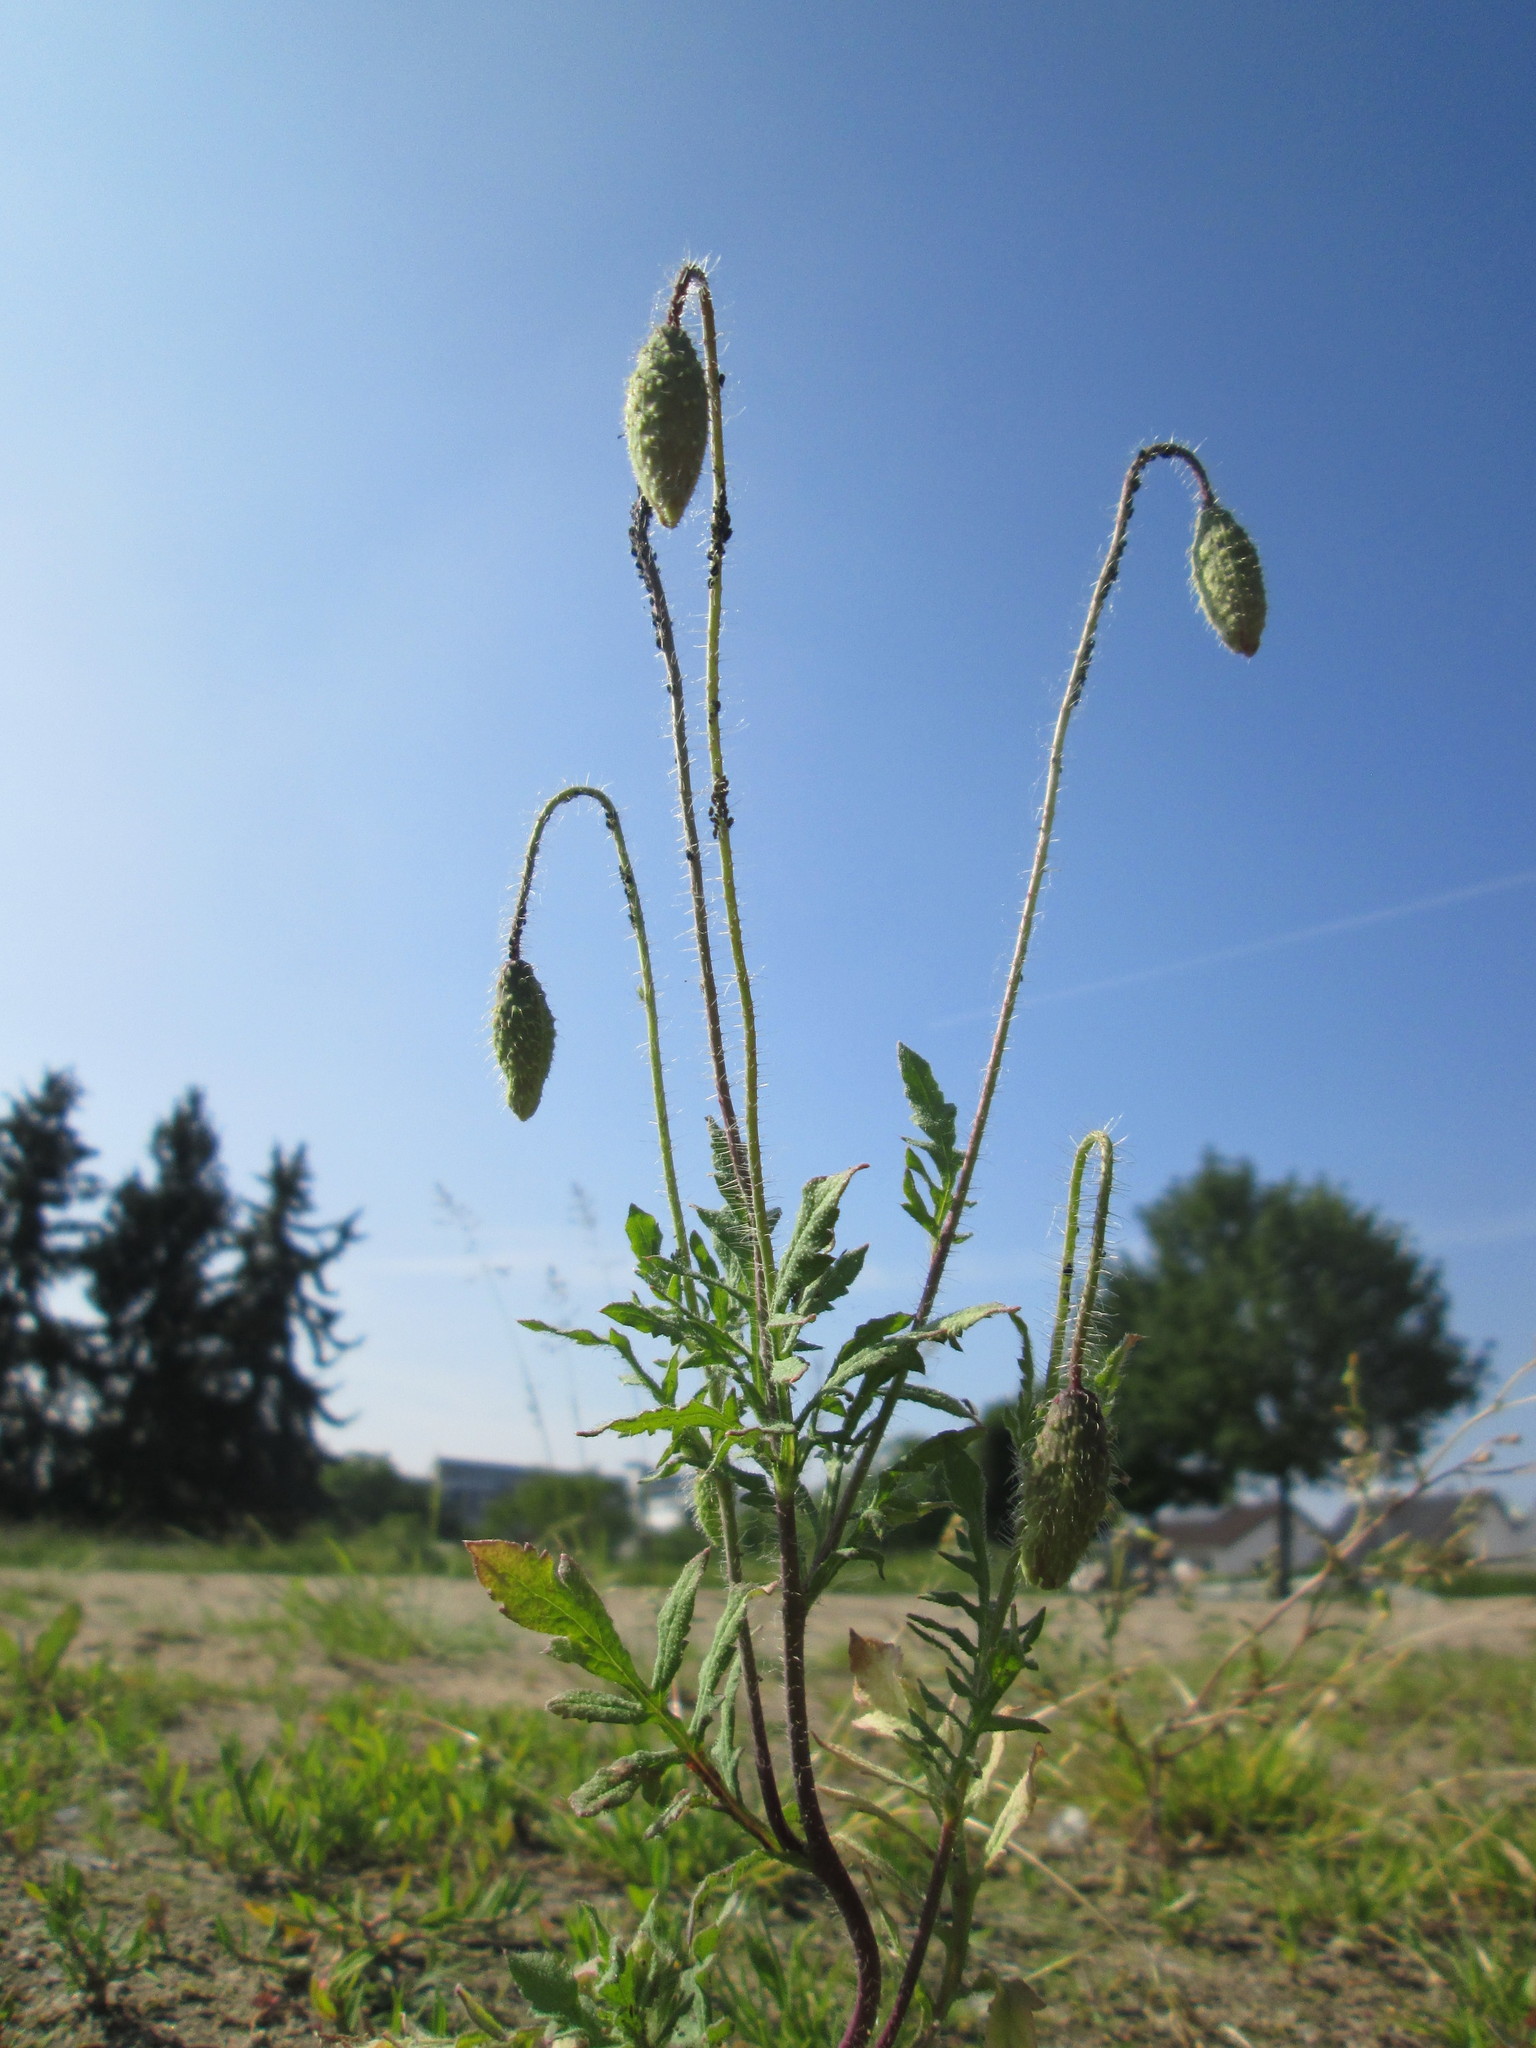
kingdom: Plantae
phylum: Tracheophyta
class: Magnoliopsida
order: Ranunculales
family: Papaveraceae
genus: Papaver
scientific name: Papaver rhoeas
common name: Corn poppy
